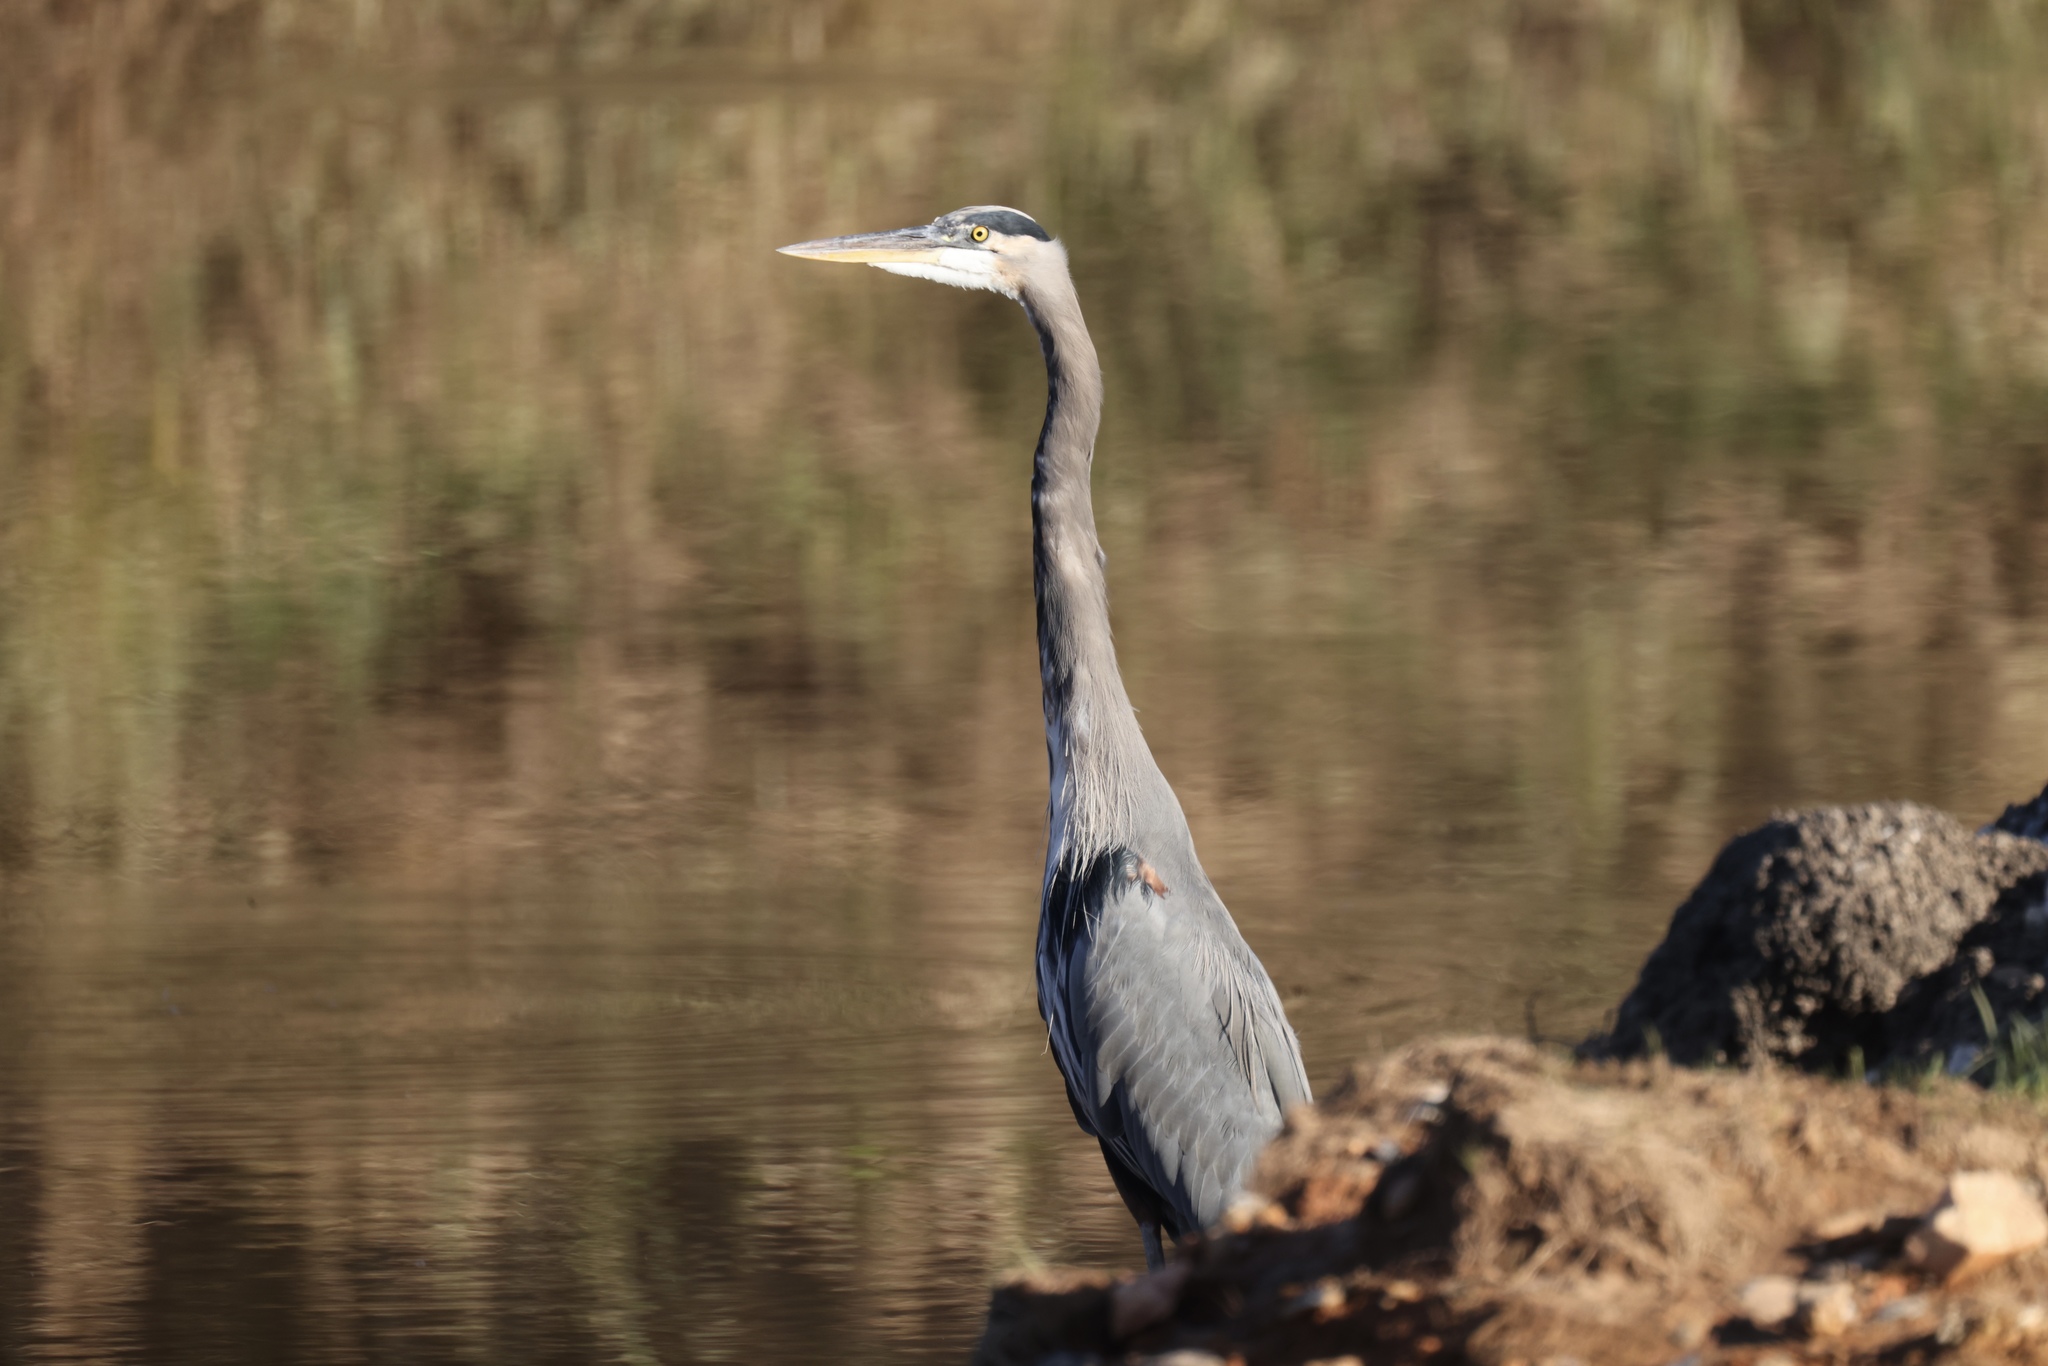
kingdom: Animalia
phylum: Chordata
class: Aves
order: Pelecaniformes
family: Ardeidae
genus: Ardea
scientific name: Ardea herodias
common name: Great blue heron
